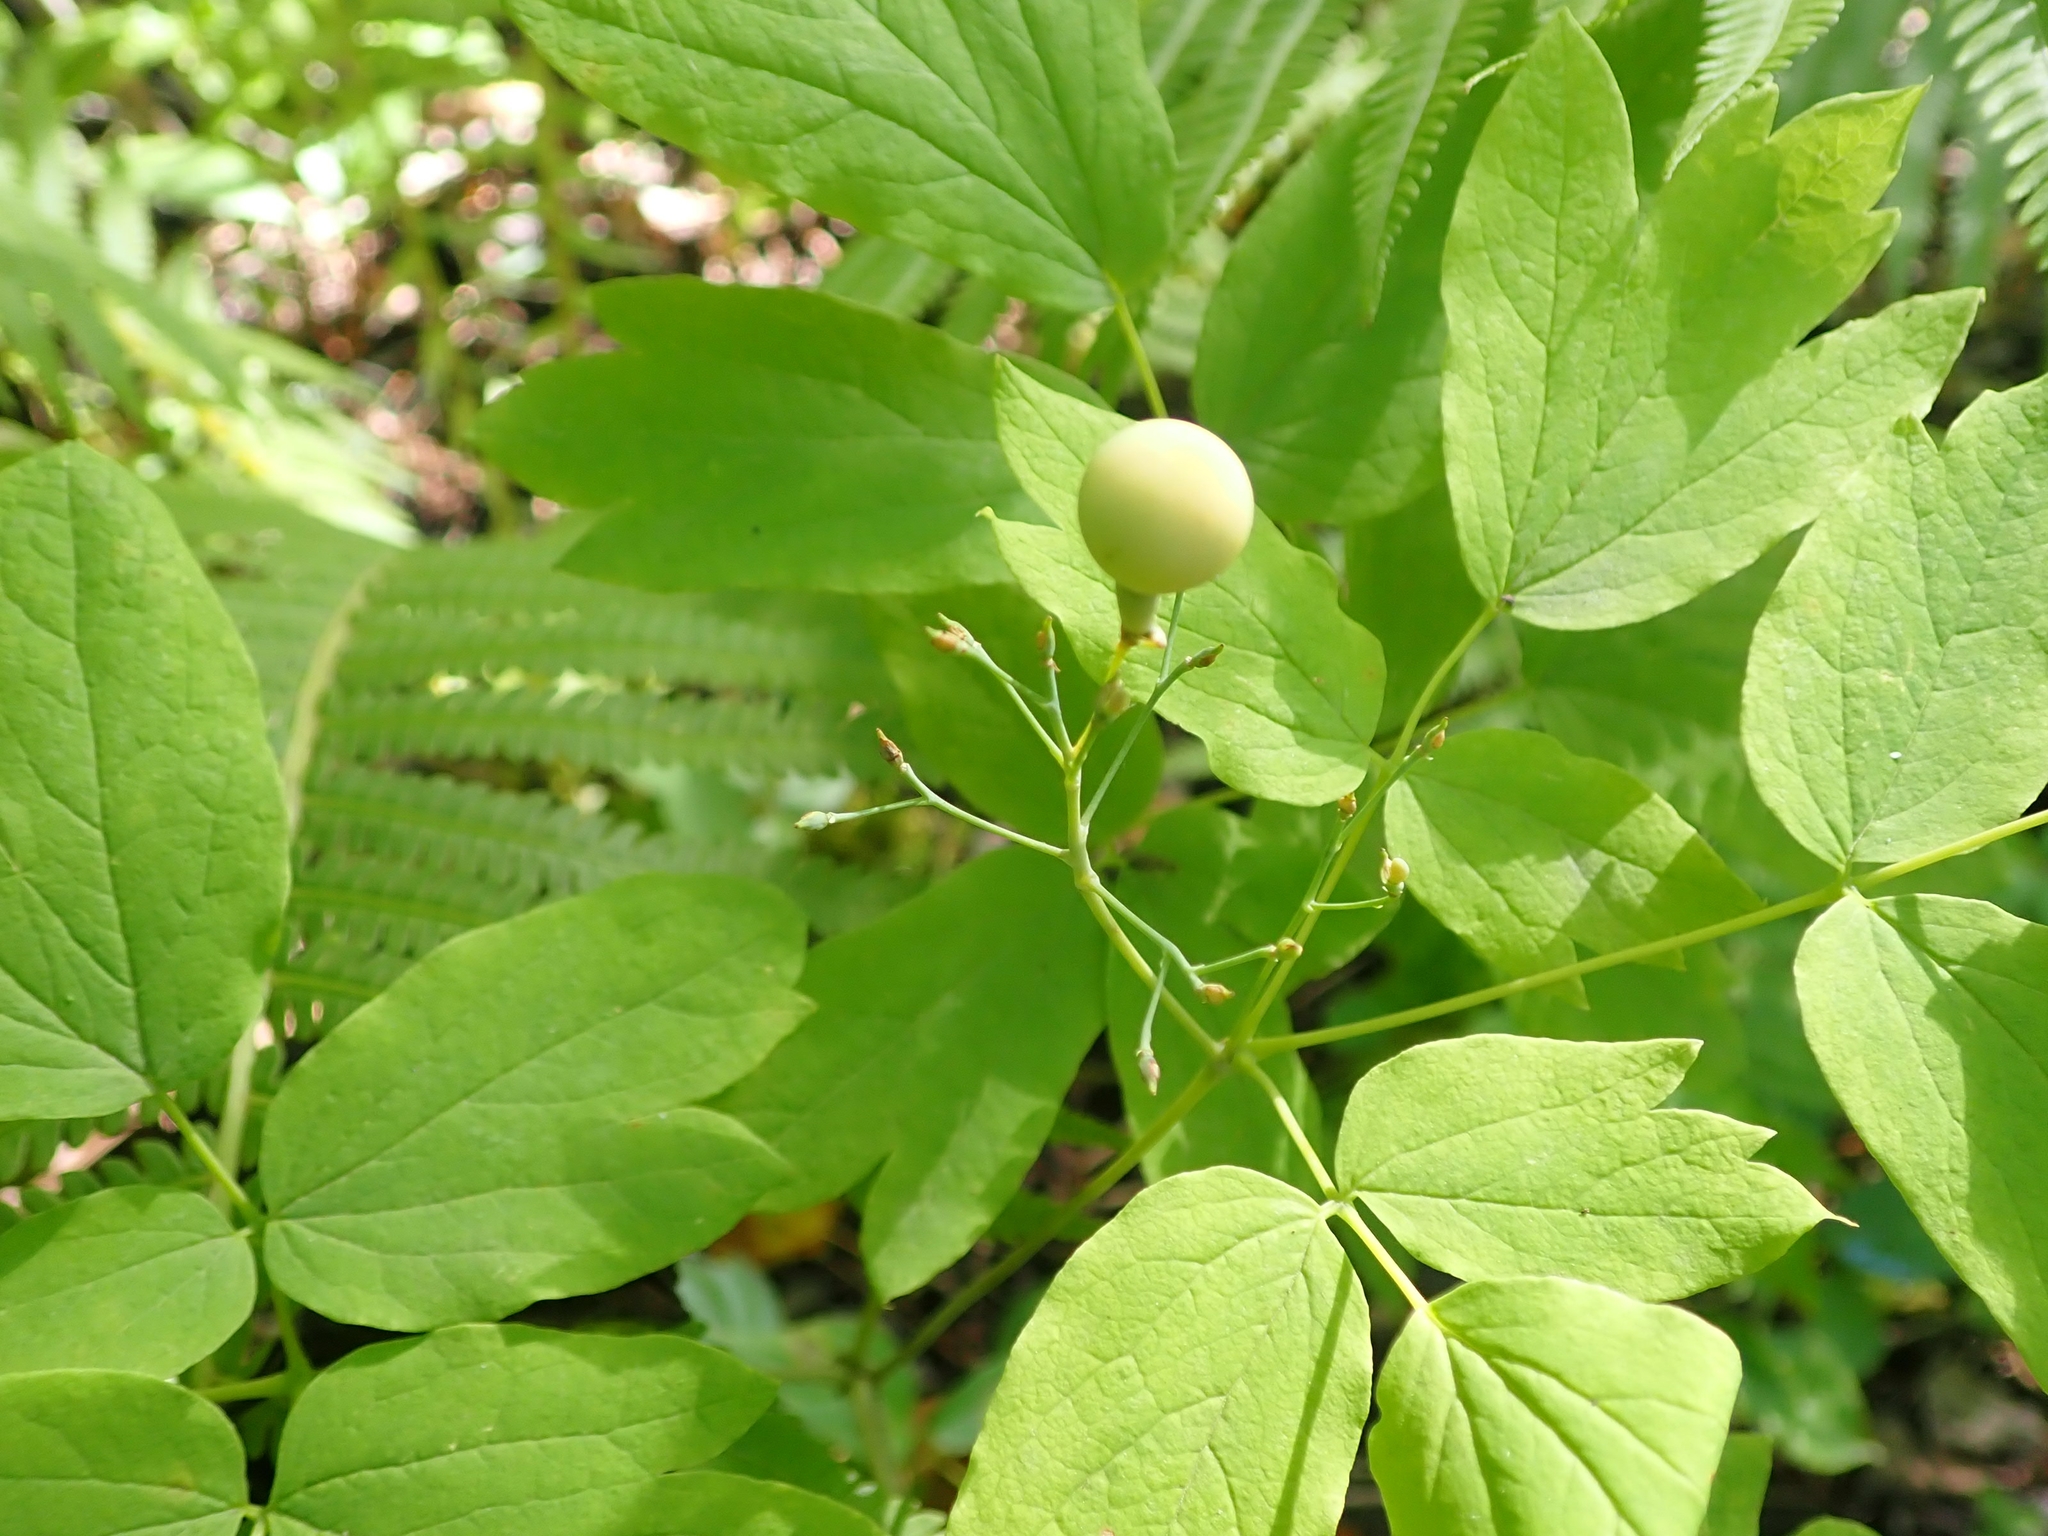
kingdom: Plantae
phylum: Tracheophyta
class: Magnoliopsida
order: Ranunculales
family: Berberidaceae
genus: Caulophyllum
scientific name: Caulophyllum thalictroides
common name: Blue cohosh
